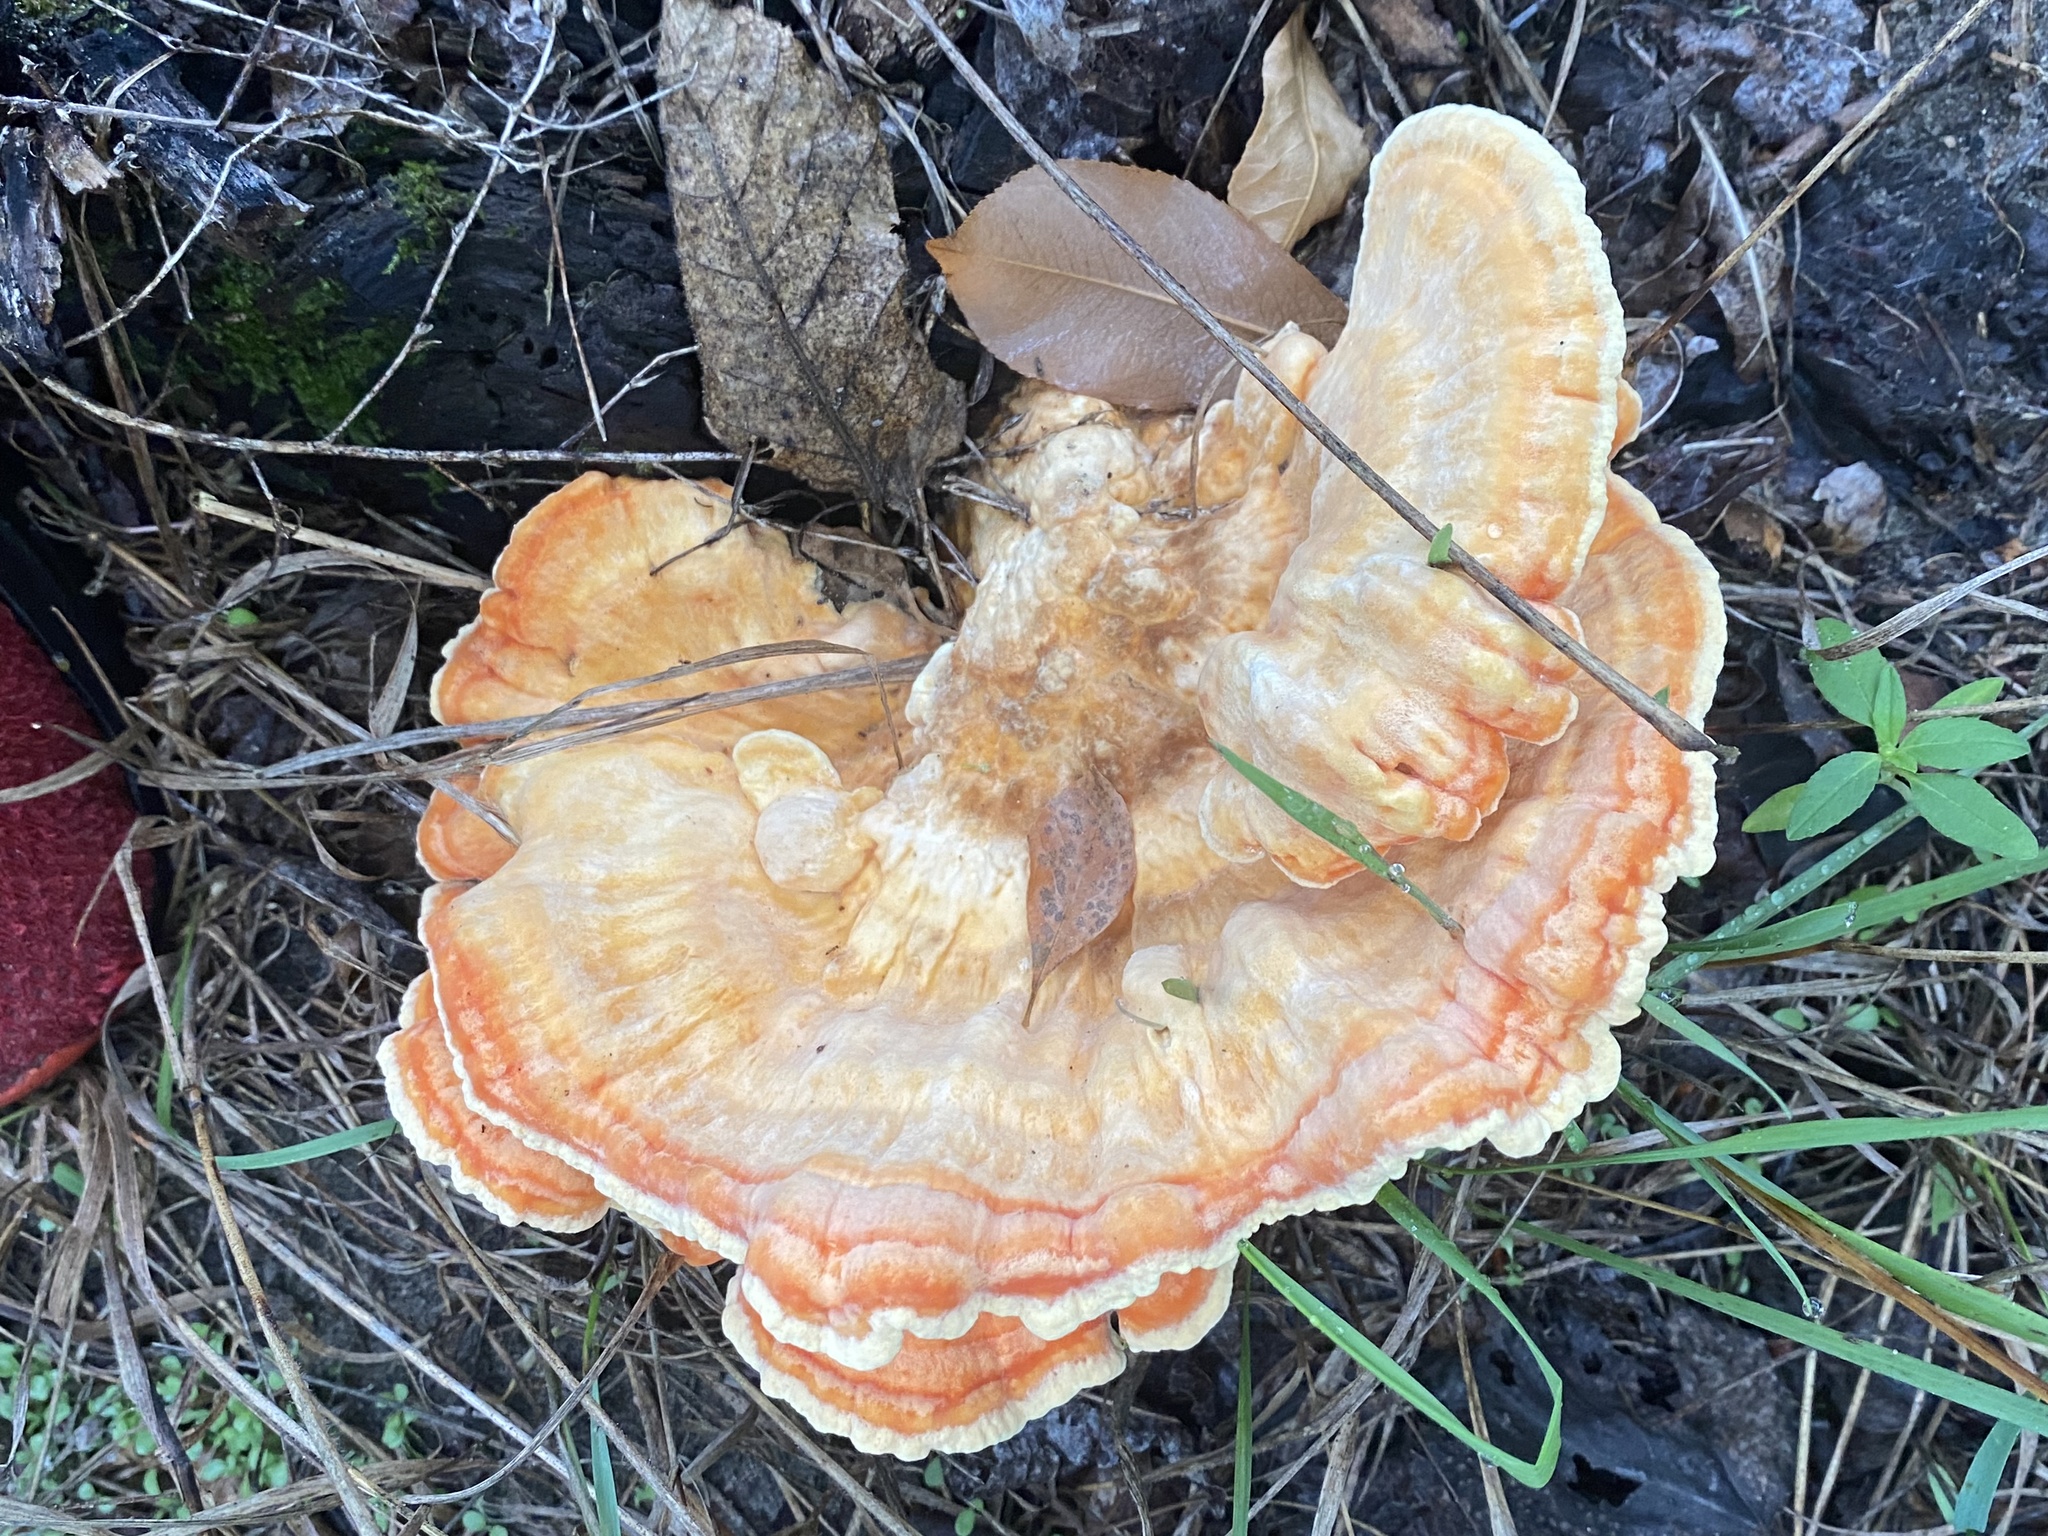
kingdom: Fungi
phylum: Basidiomycota
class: Agaricomycetes
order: Polyporales
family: Laetiporaceae
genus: Laetiporus
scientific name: Laetiporus sulphureus
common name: Chicken of the woods
